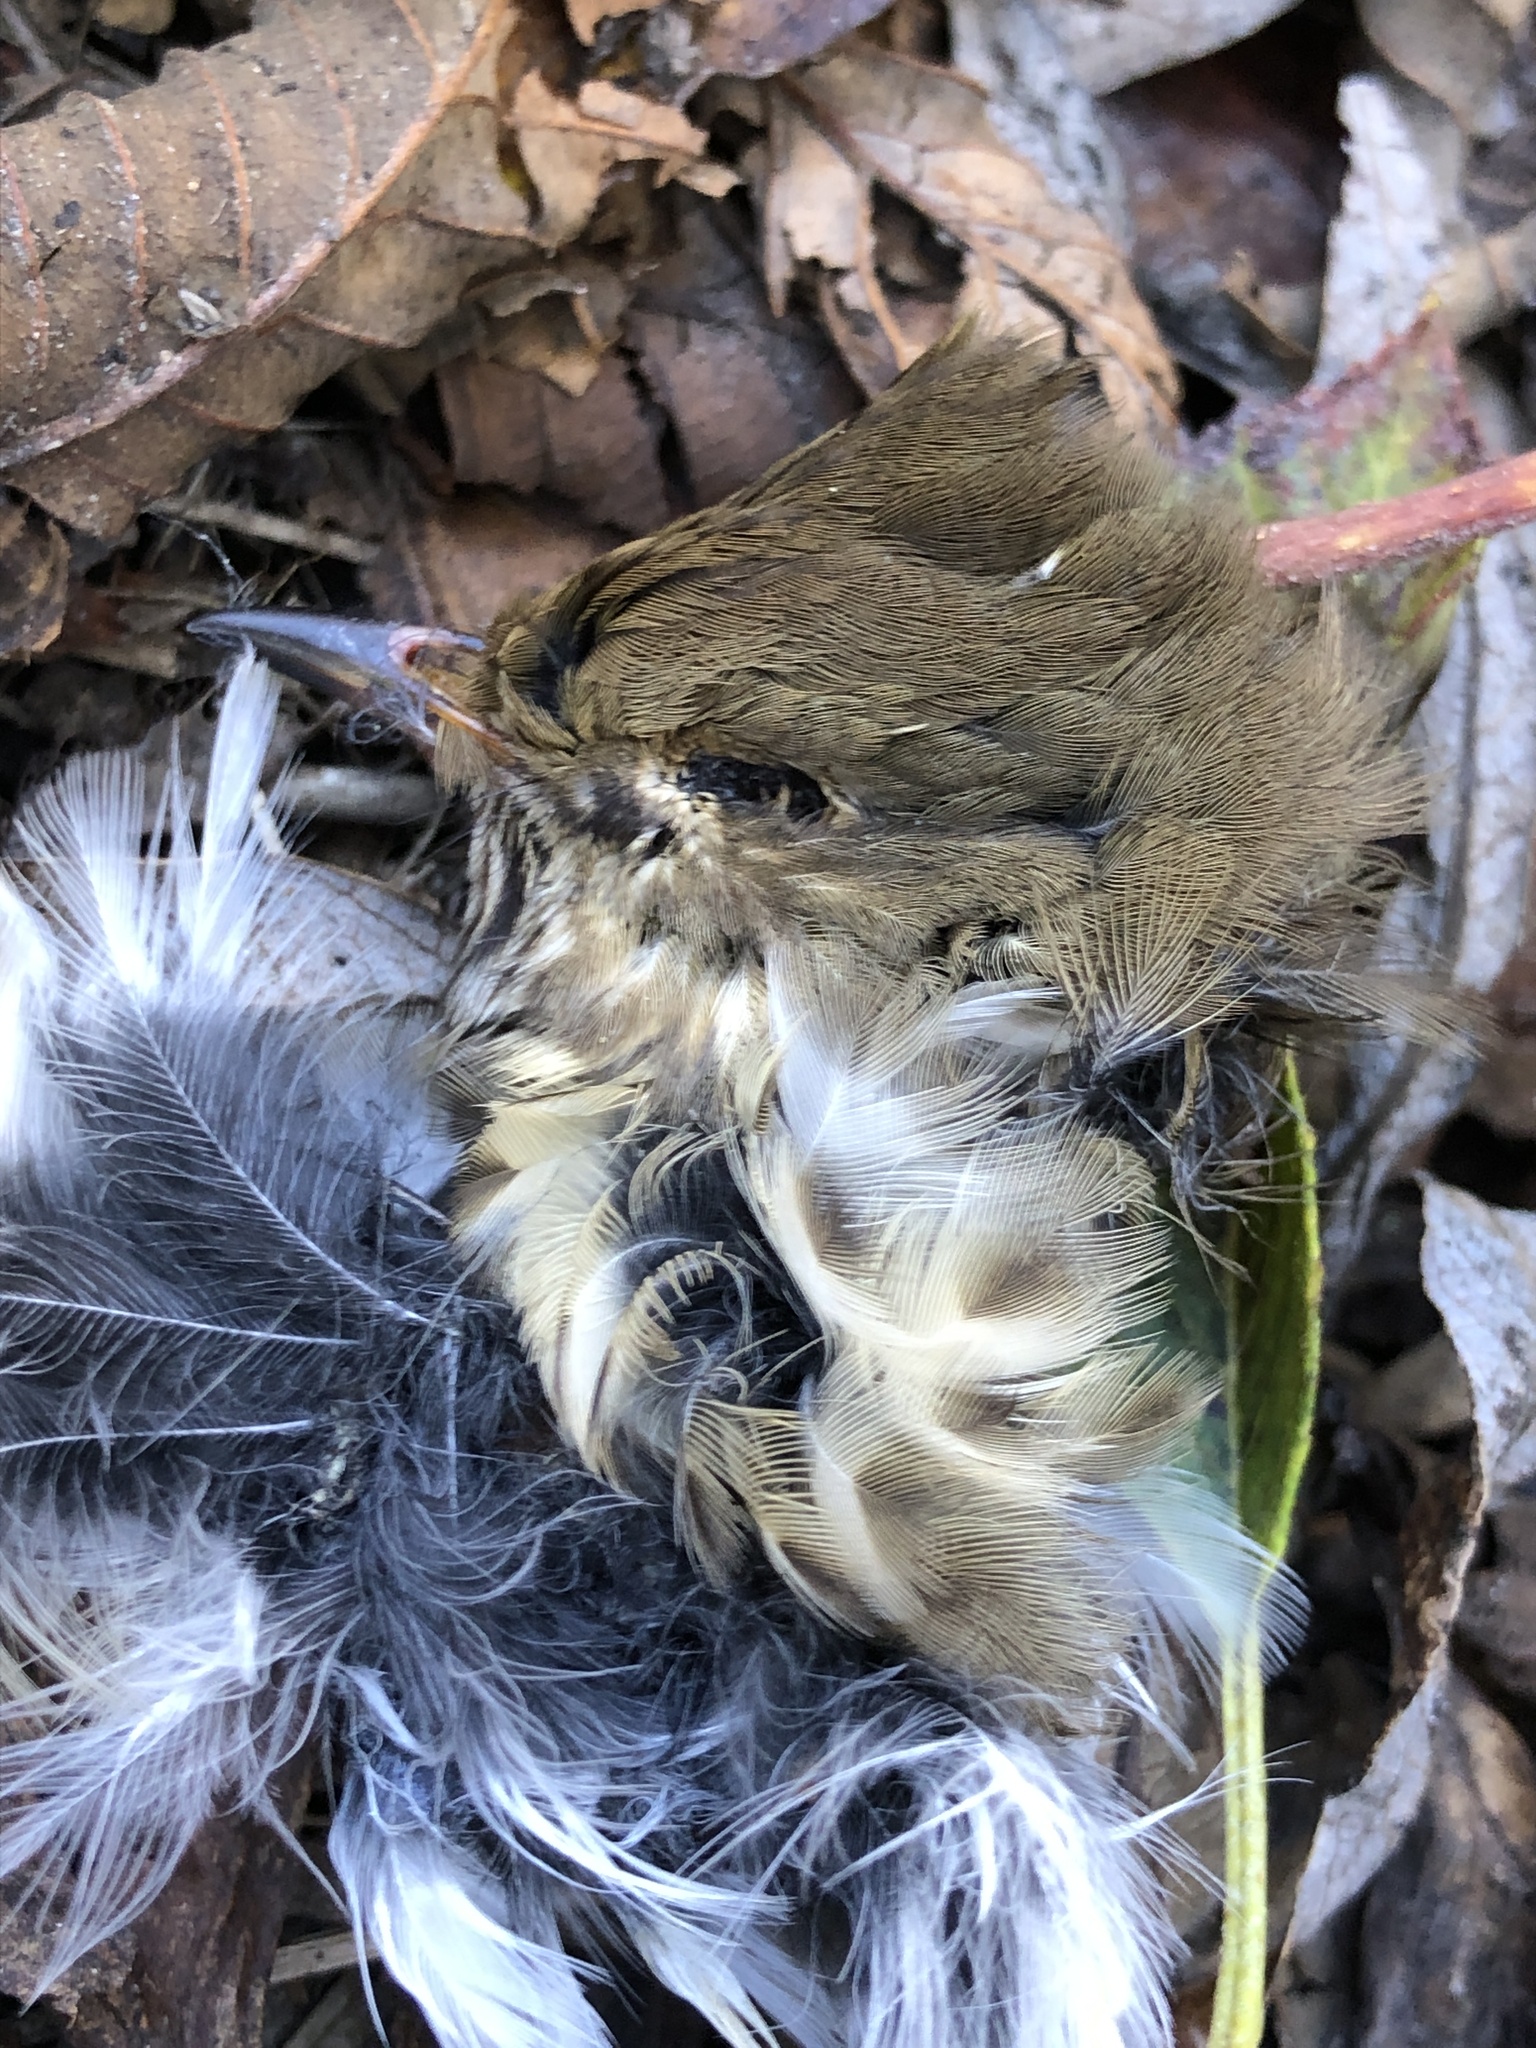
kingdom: Animalia
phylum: Chordata
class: Aves
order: Passeriformes
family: Turdidae
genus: Catharus
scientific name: Catharus guttatus
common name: Hermit thrush
